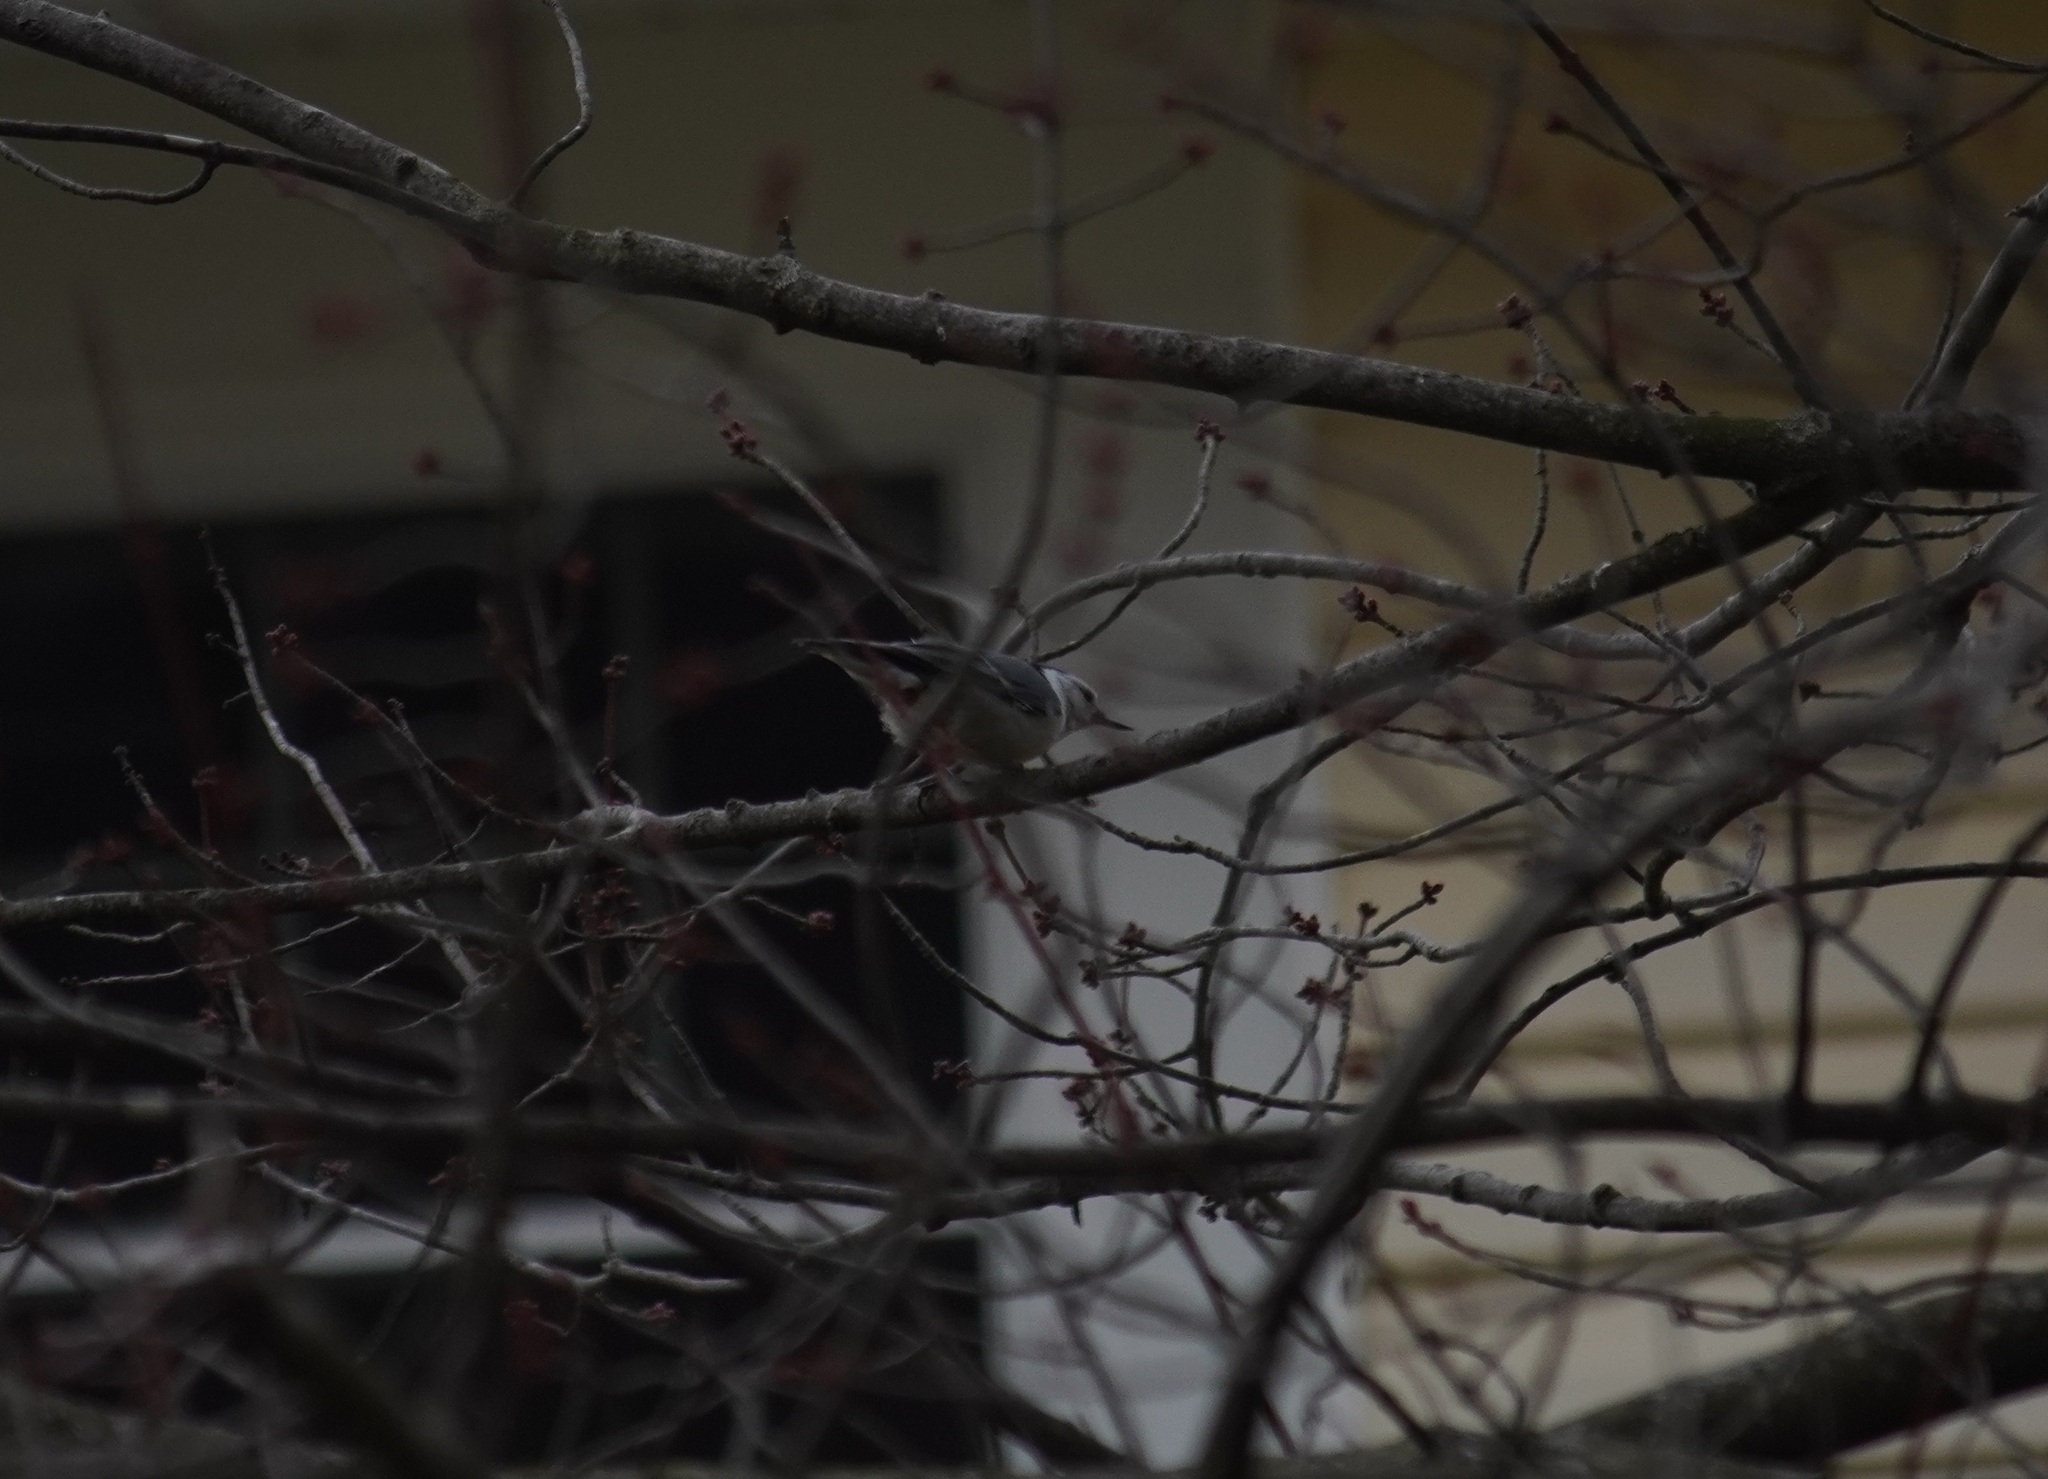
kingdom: Animalia
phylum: Chordata
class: Aves
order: Passeriformes
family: Sittidae
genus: Sitta
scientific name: Sitta carolinensis
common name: White-breasted nuthatch
